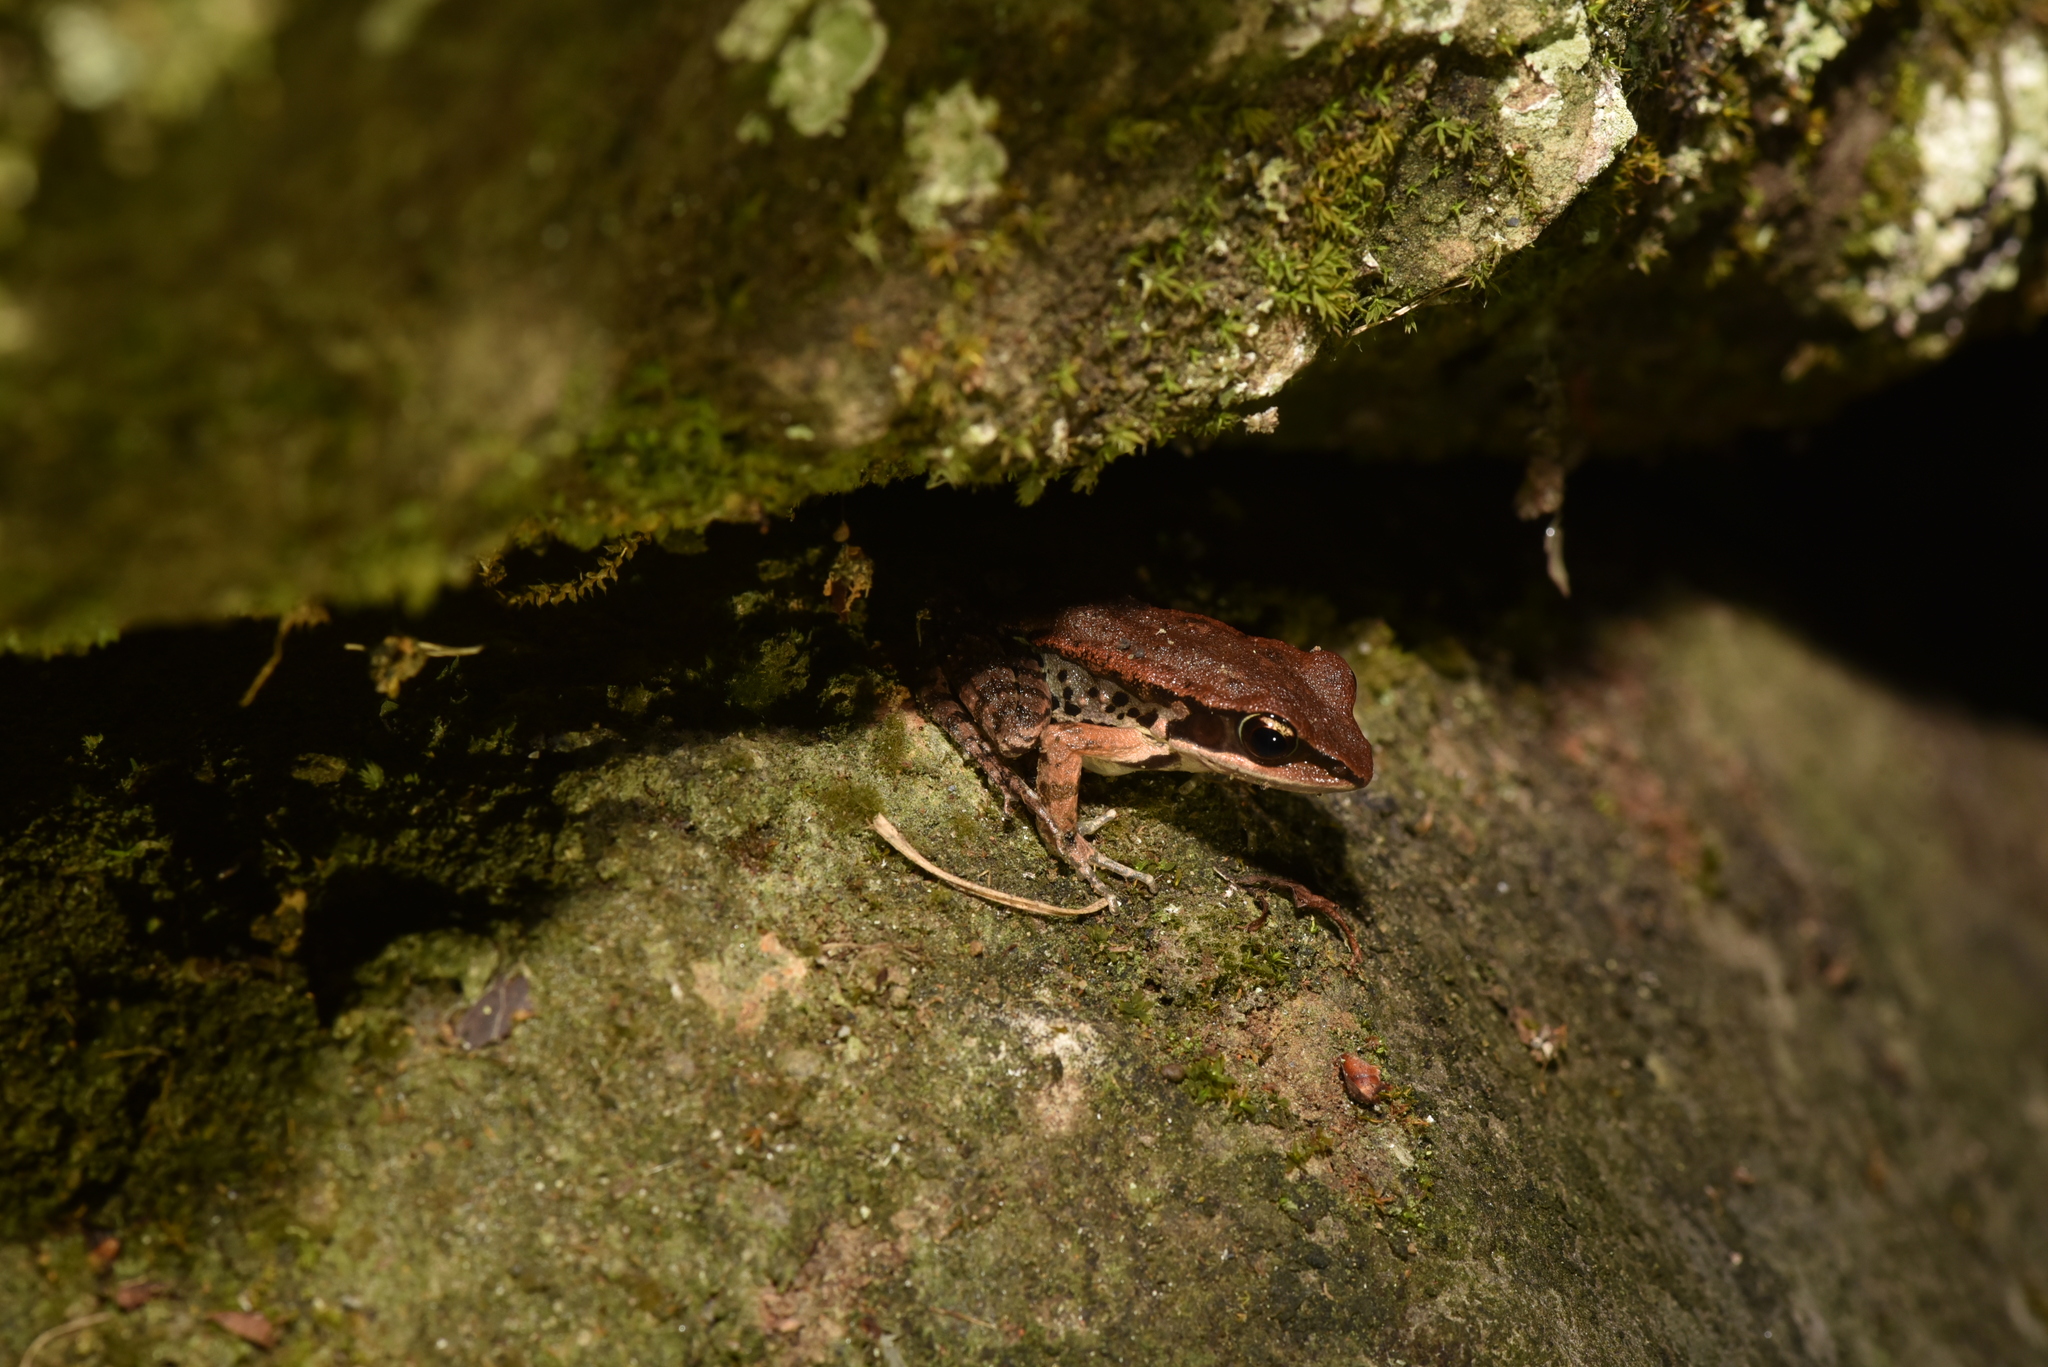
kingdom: Animalia
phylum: Chordata
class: Amphibia
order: Anura
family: Ranidae
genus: Hylarana
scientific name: Hylarana latouchii
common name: Broad-folded frog
